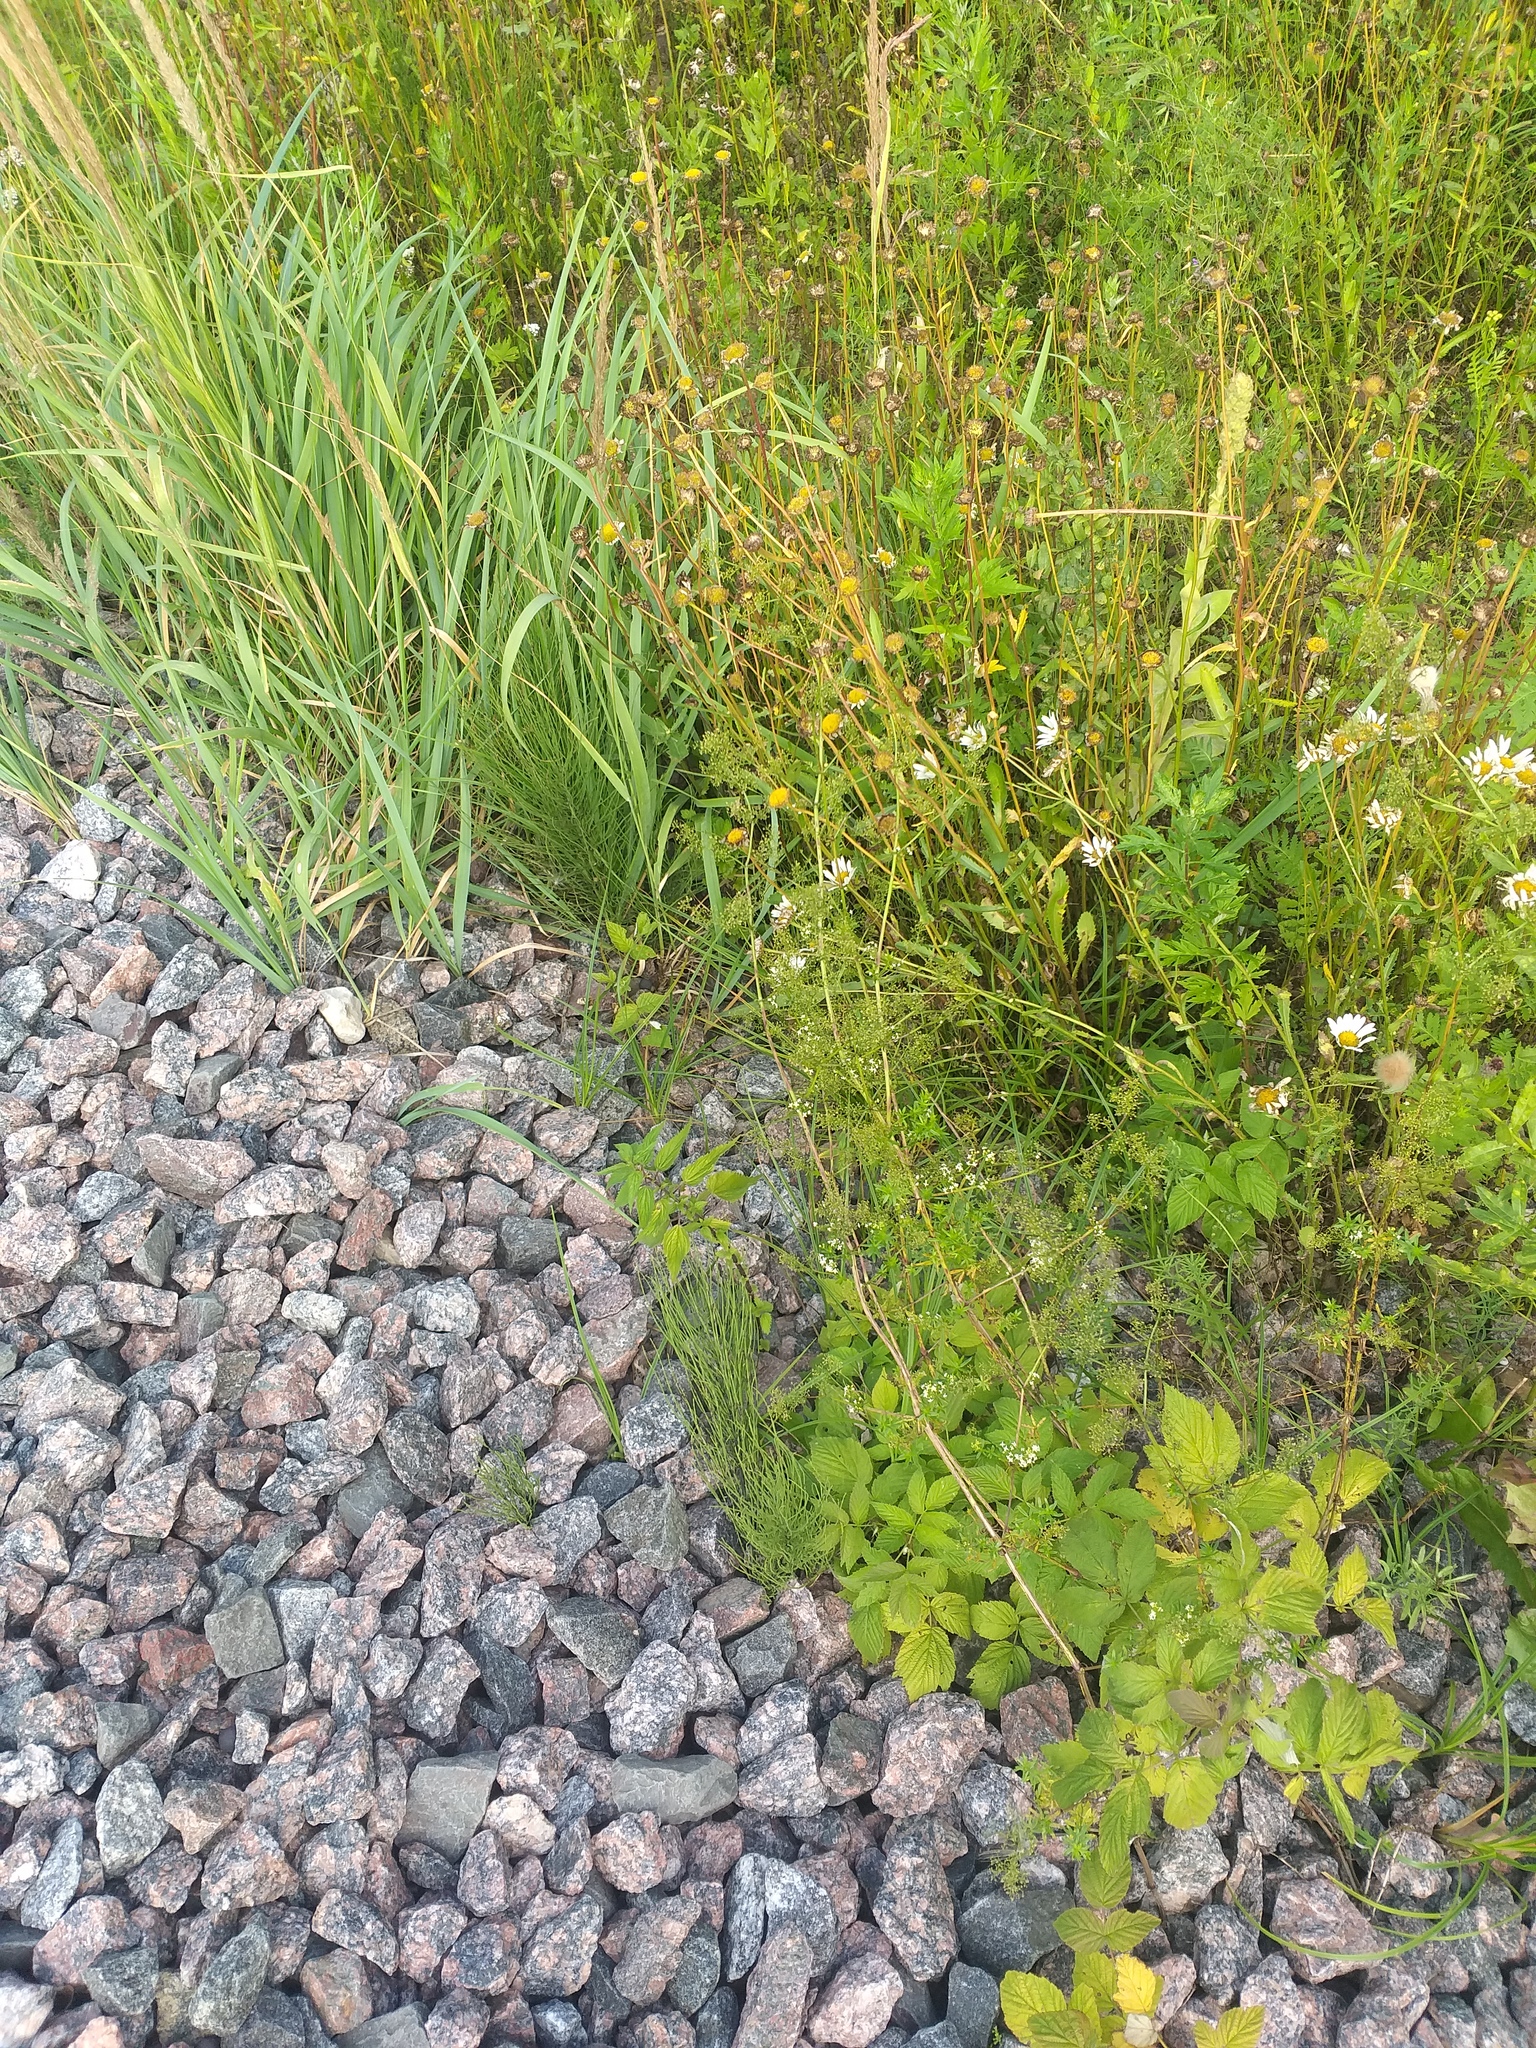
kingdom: Plantae
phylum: Tracheophyta
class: Magnoliopsida
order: Gentianales
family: Rubiaceae
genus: Galium
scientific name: Galium mollugo
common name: Hedge bedstraw
